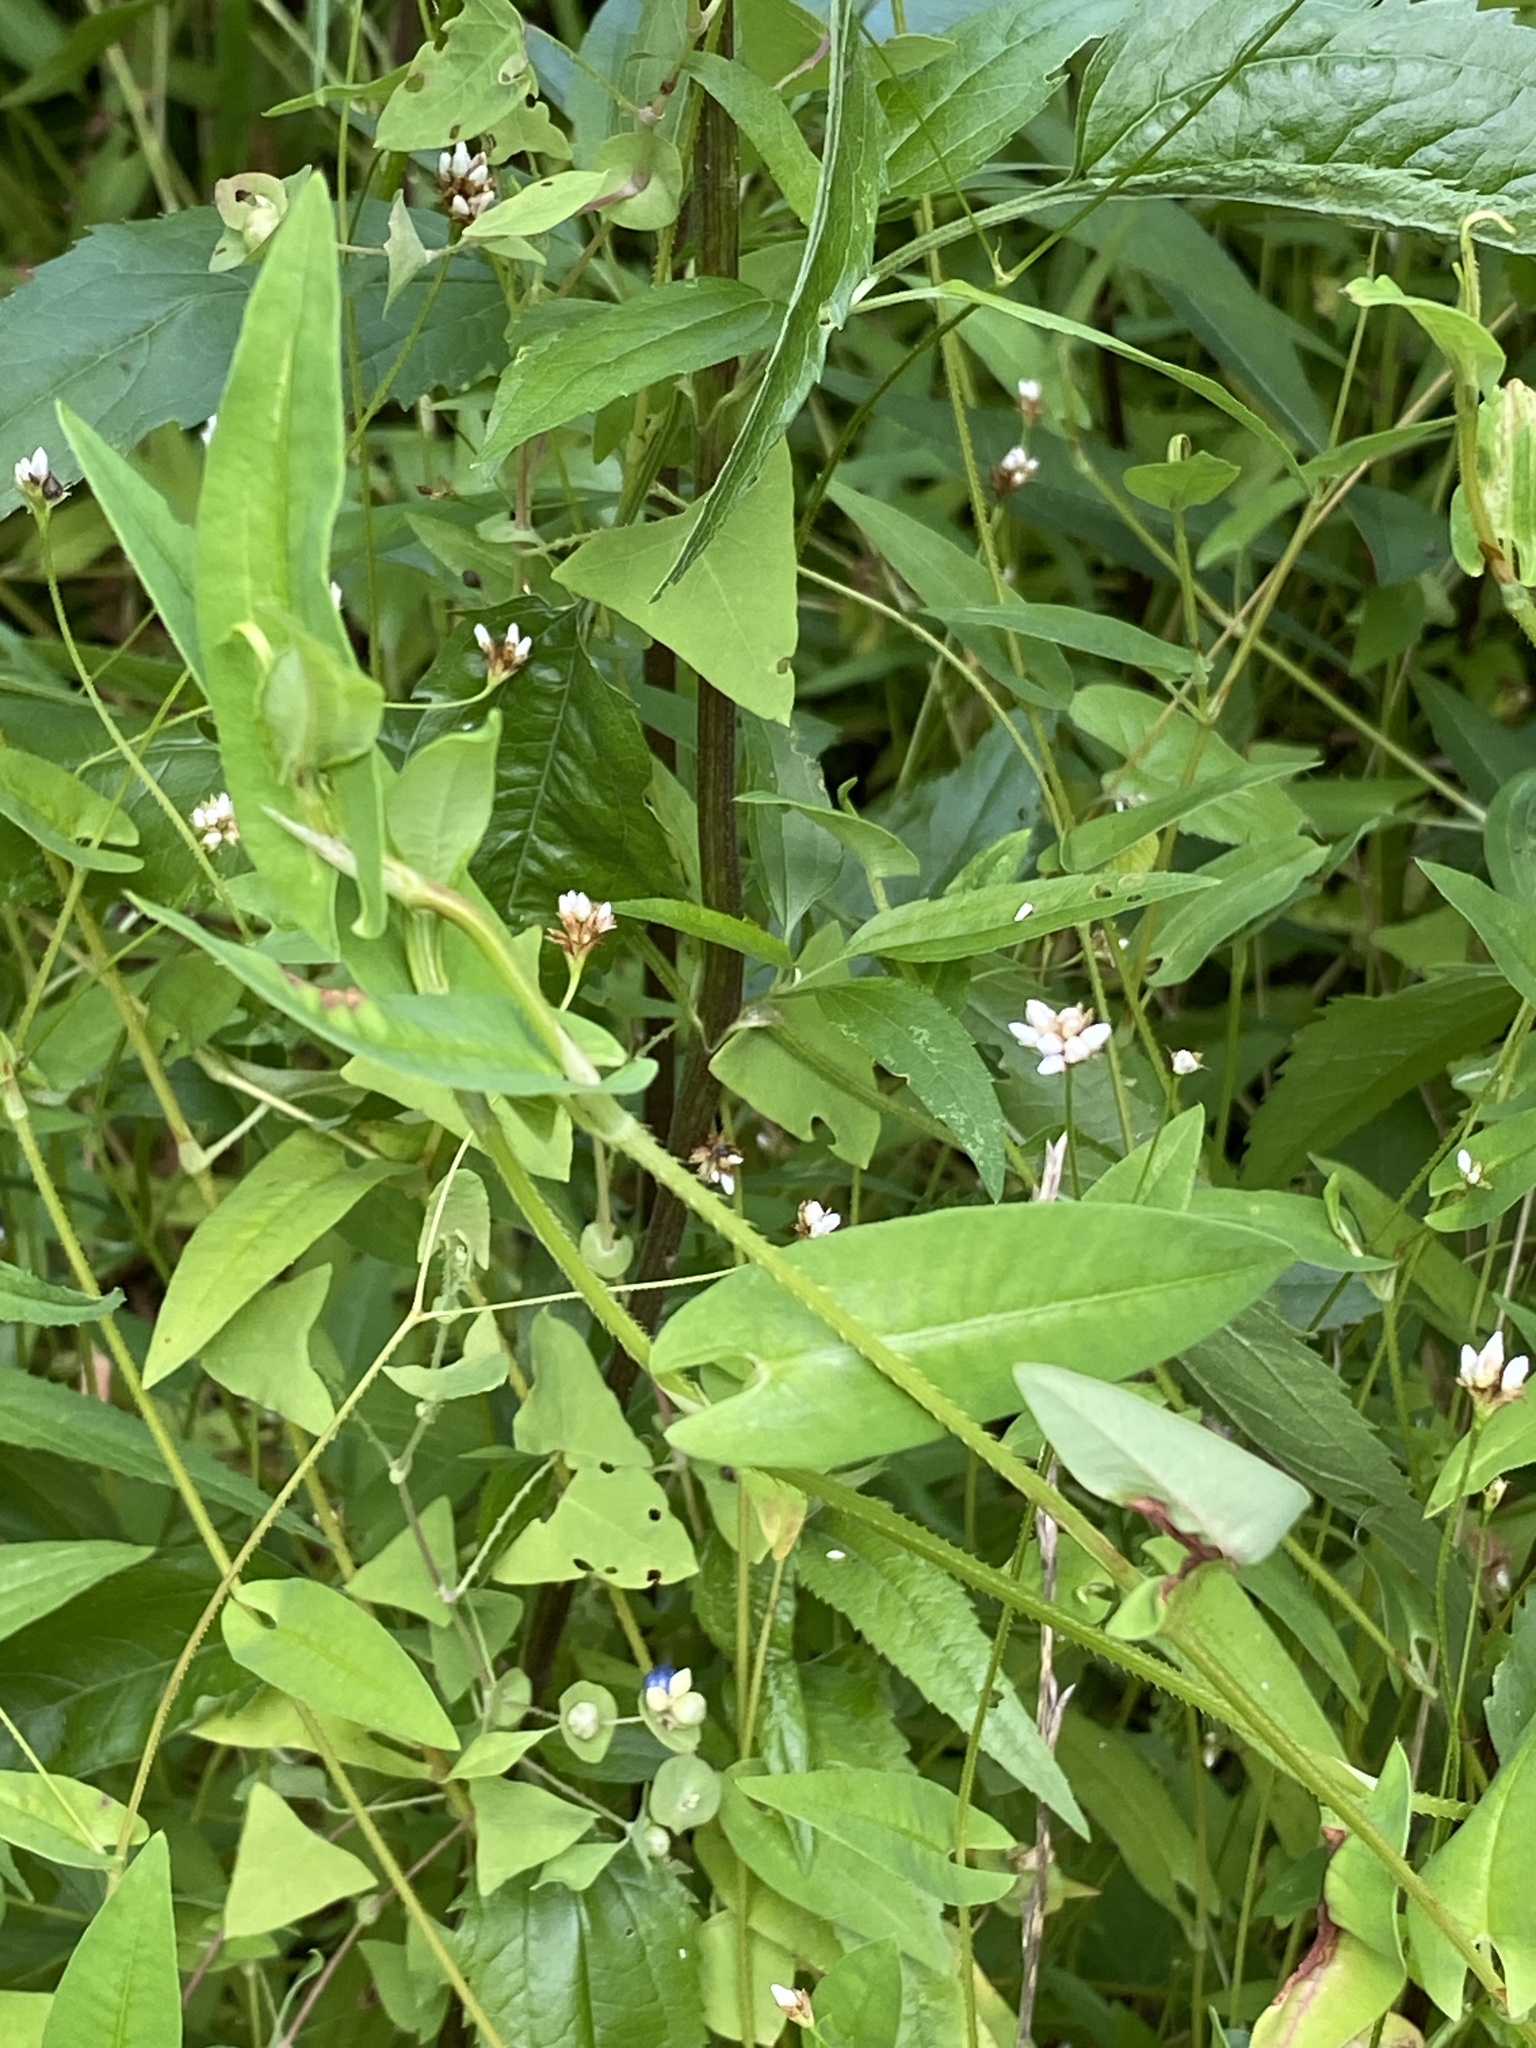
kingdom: Plantae
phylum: Tracheophyta
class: Magnoliopsida
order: Caryophyllales
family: Polygonaceae
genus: Persicaria
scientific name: Persicaria sagittata
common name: American tearthumb
